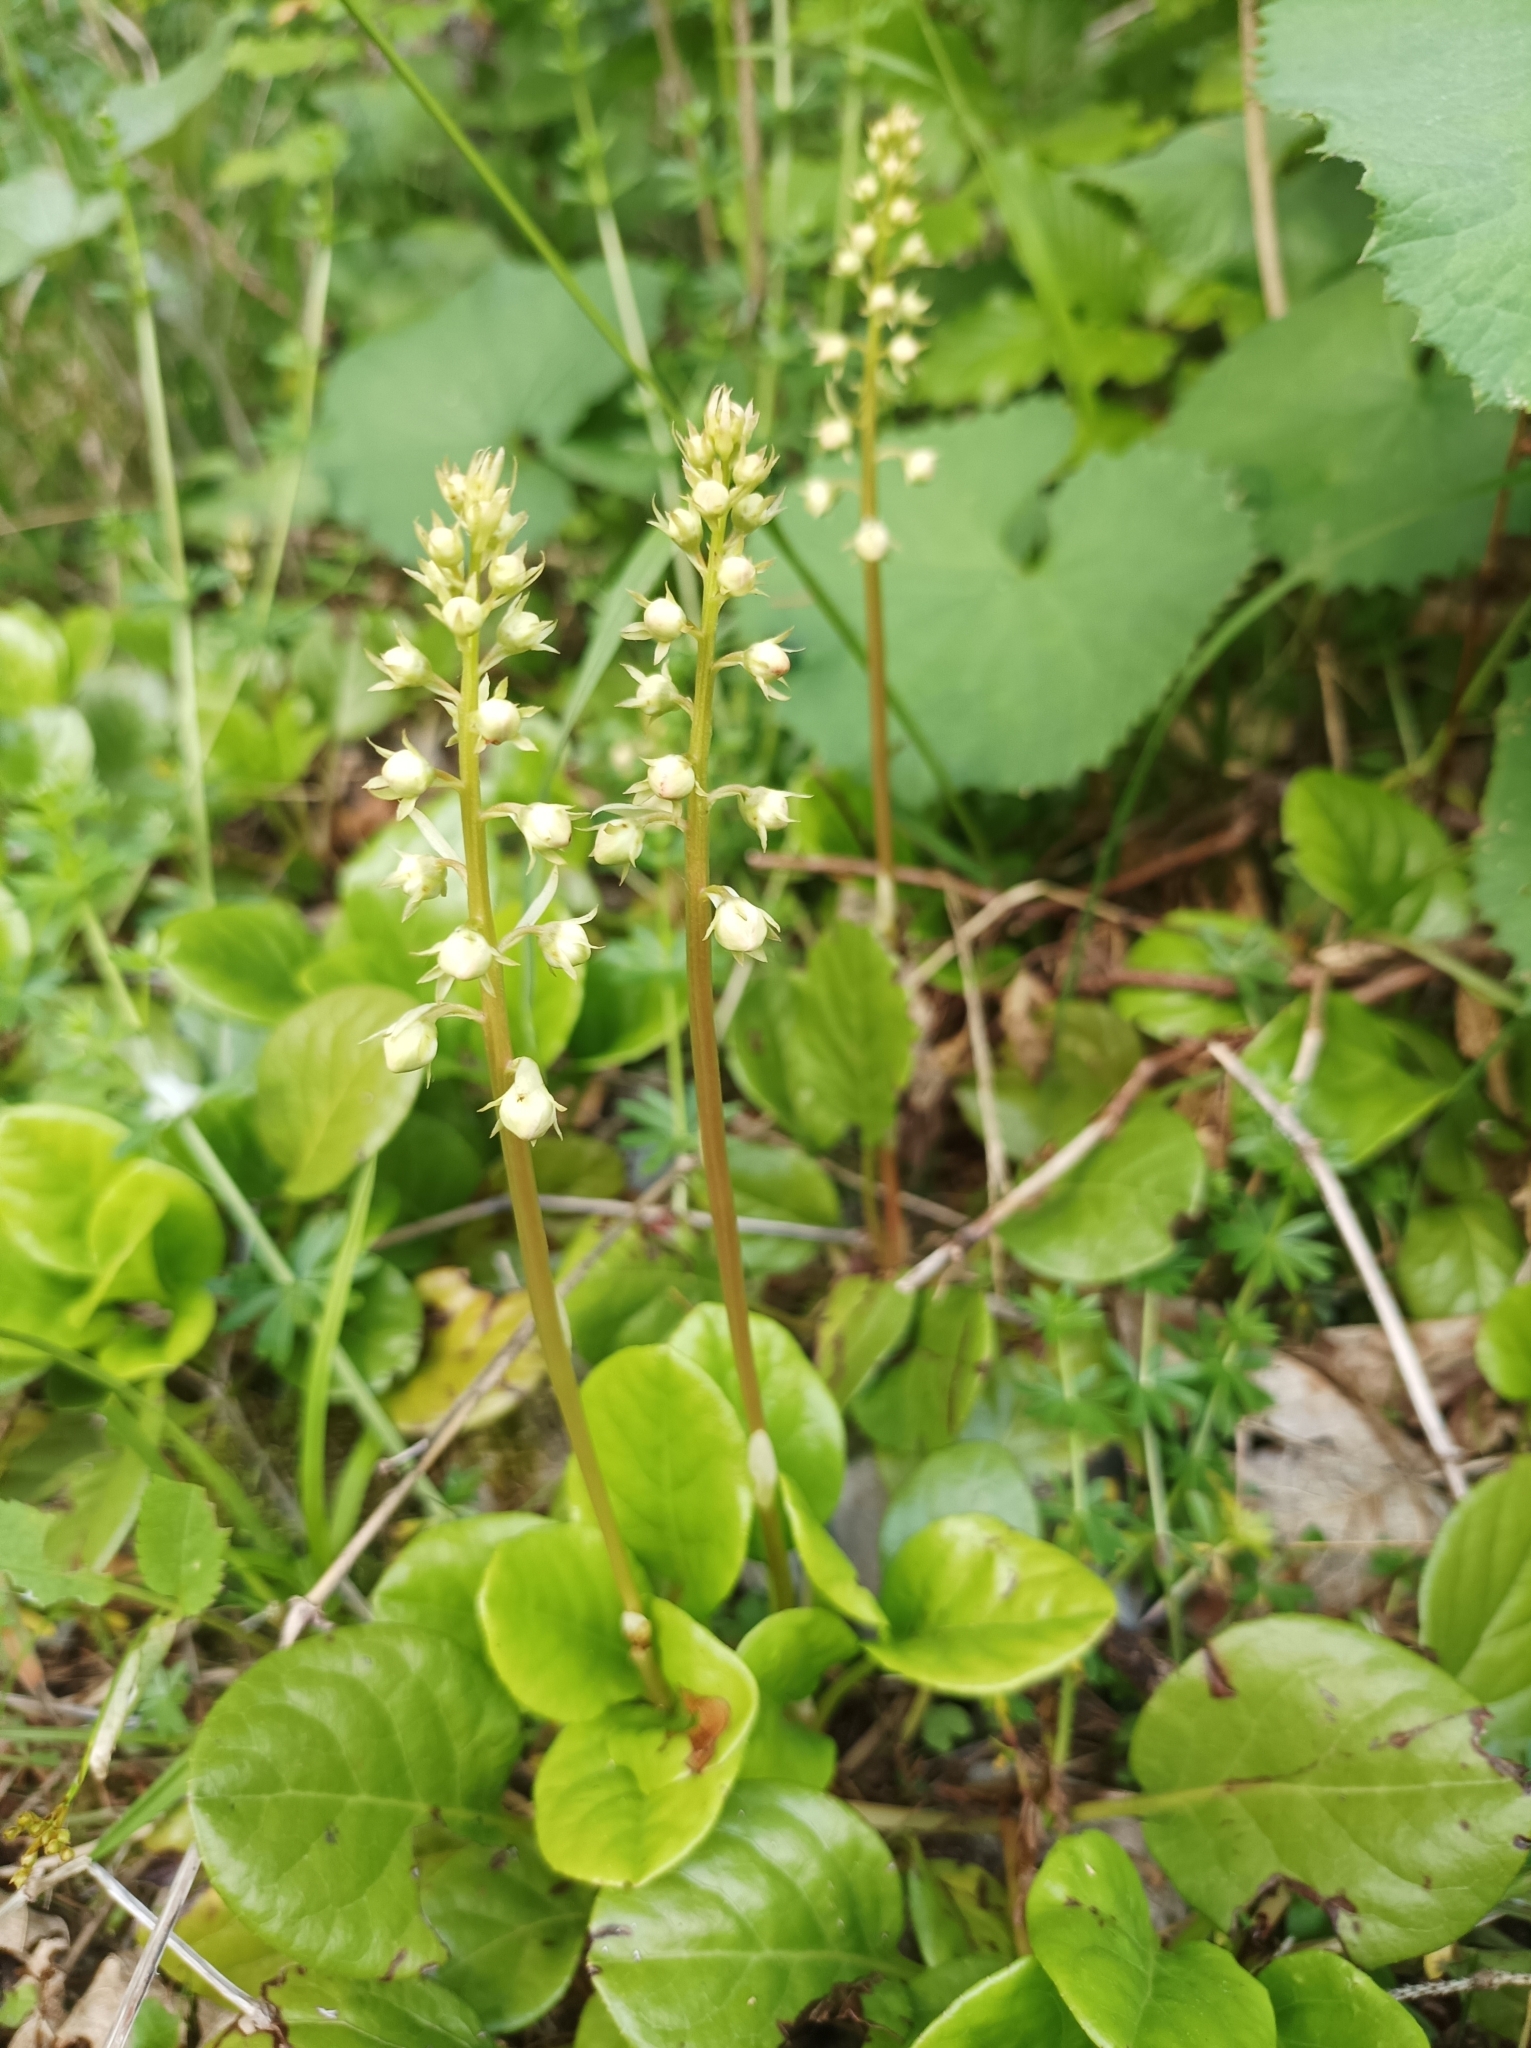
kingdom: Plantae
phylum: Tracheophyta
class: Magnoliopsida
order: Ericales
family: Ericaceae
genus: Pyrola
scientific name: Pyrola rotundifolia
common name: Round-leaved wintergreen
